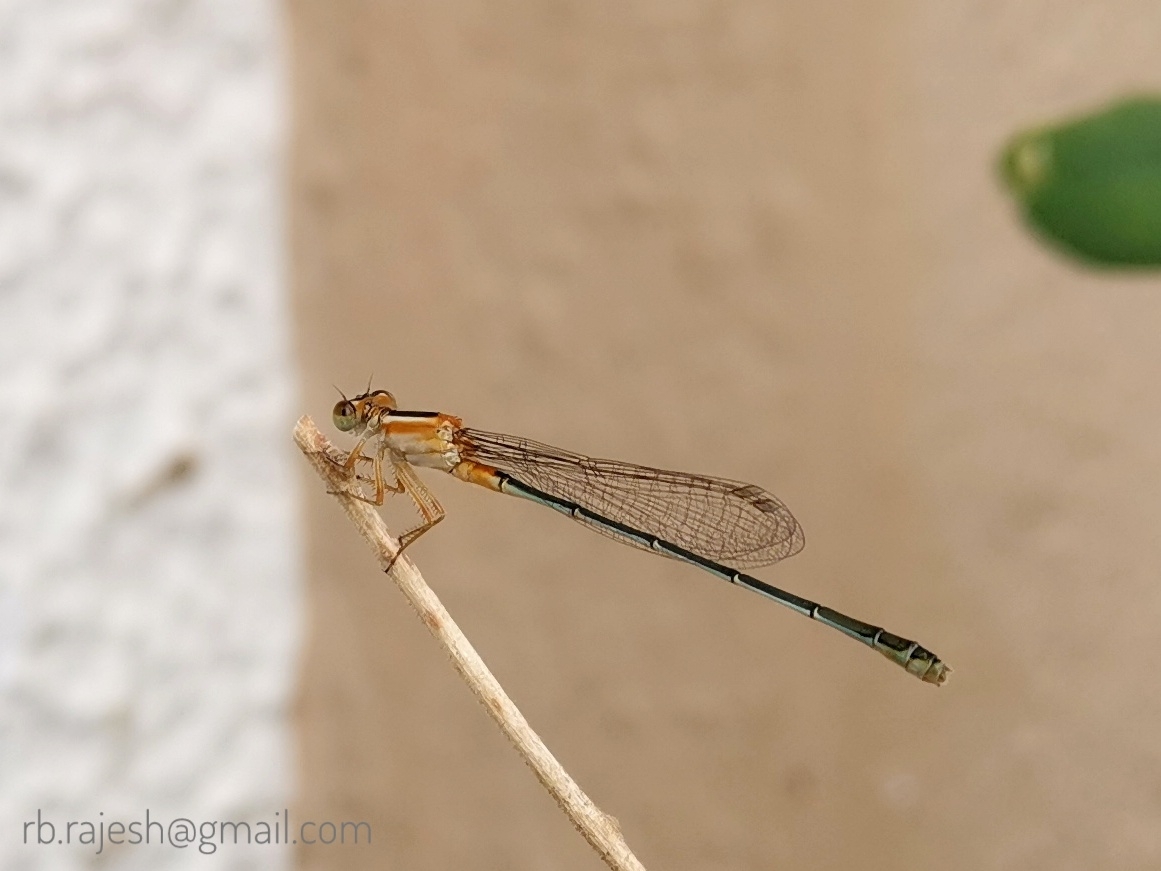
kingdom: Animalia
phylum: Arthropoda
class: Insecta
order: Odonata
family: Coenagrionidae
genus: Ischnura
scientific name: Ischnura senegalensis
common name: Tropical bluetail
